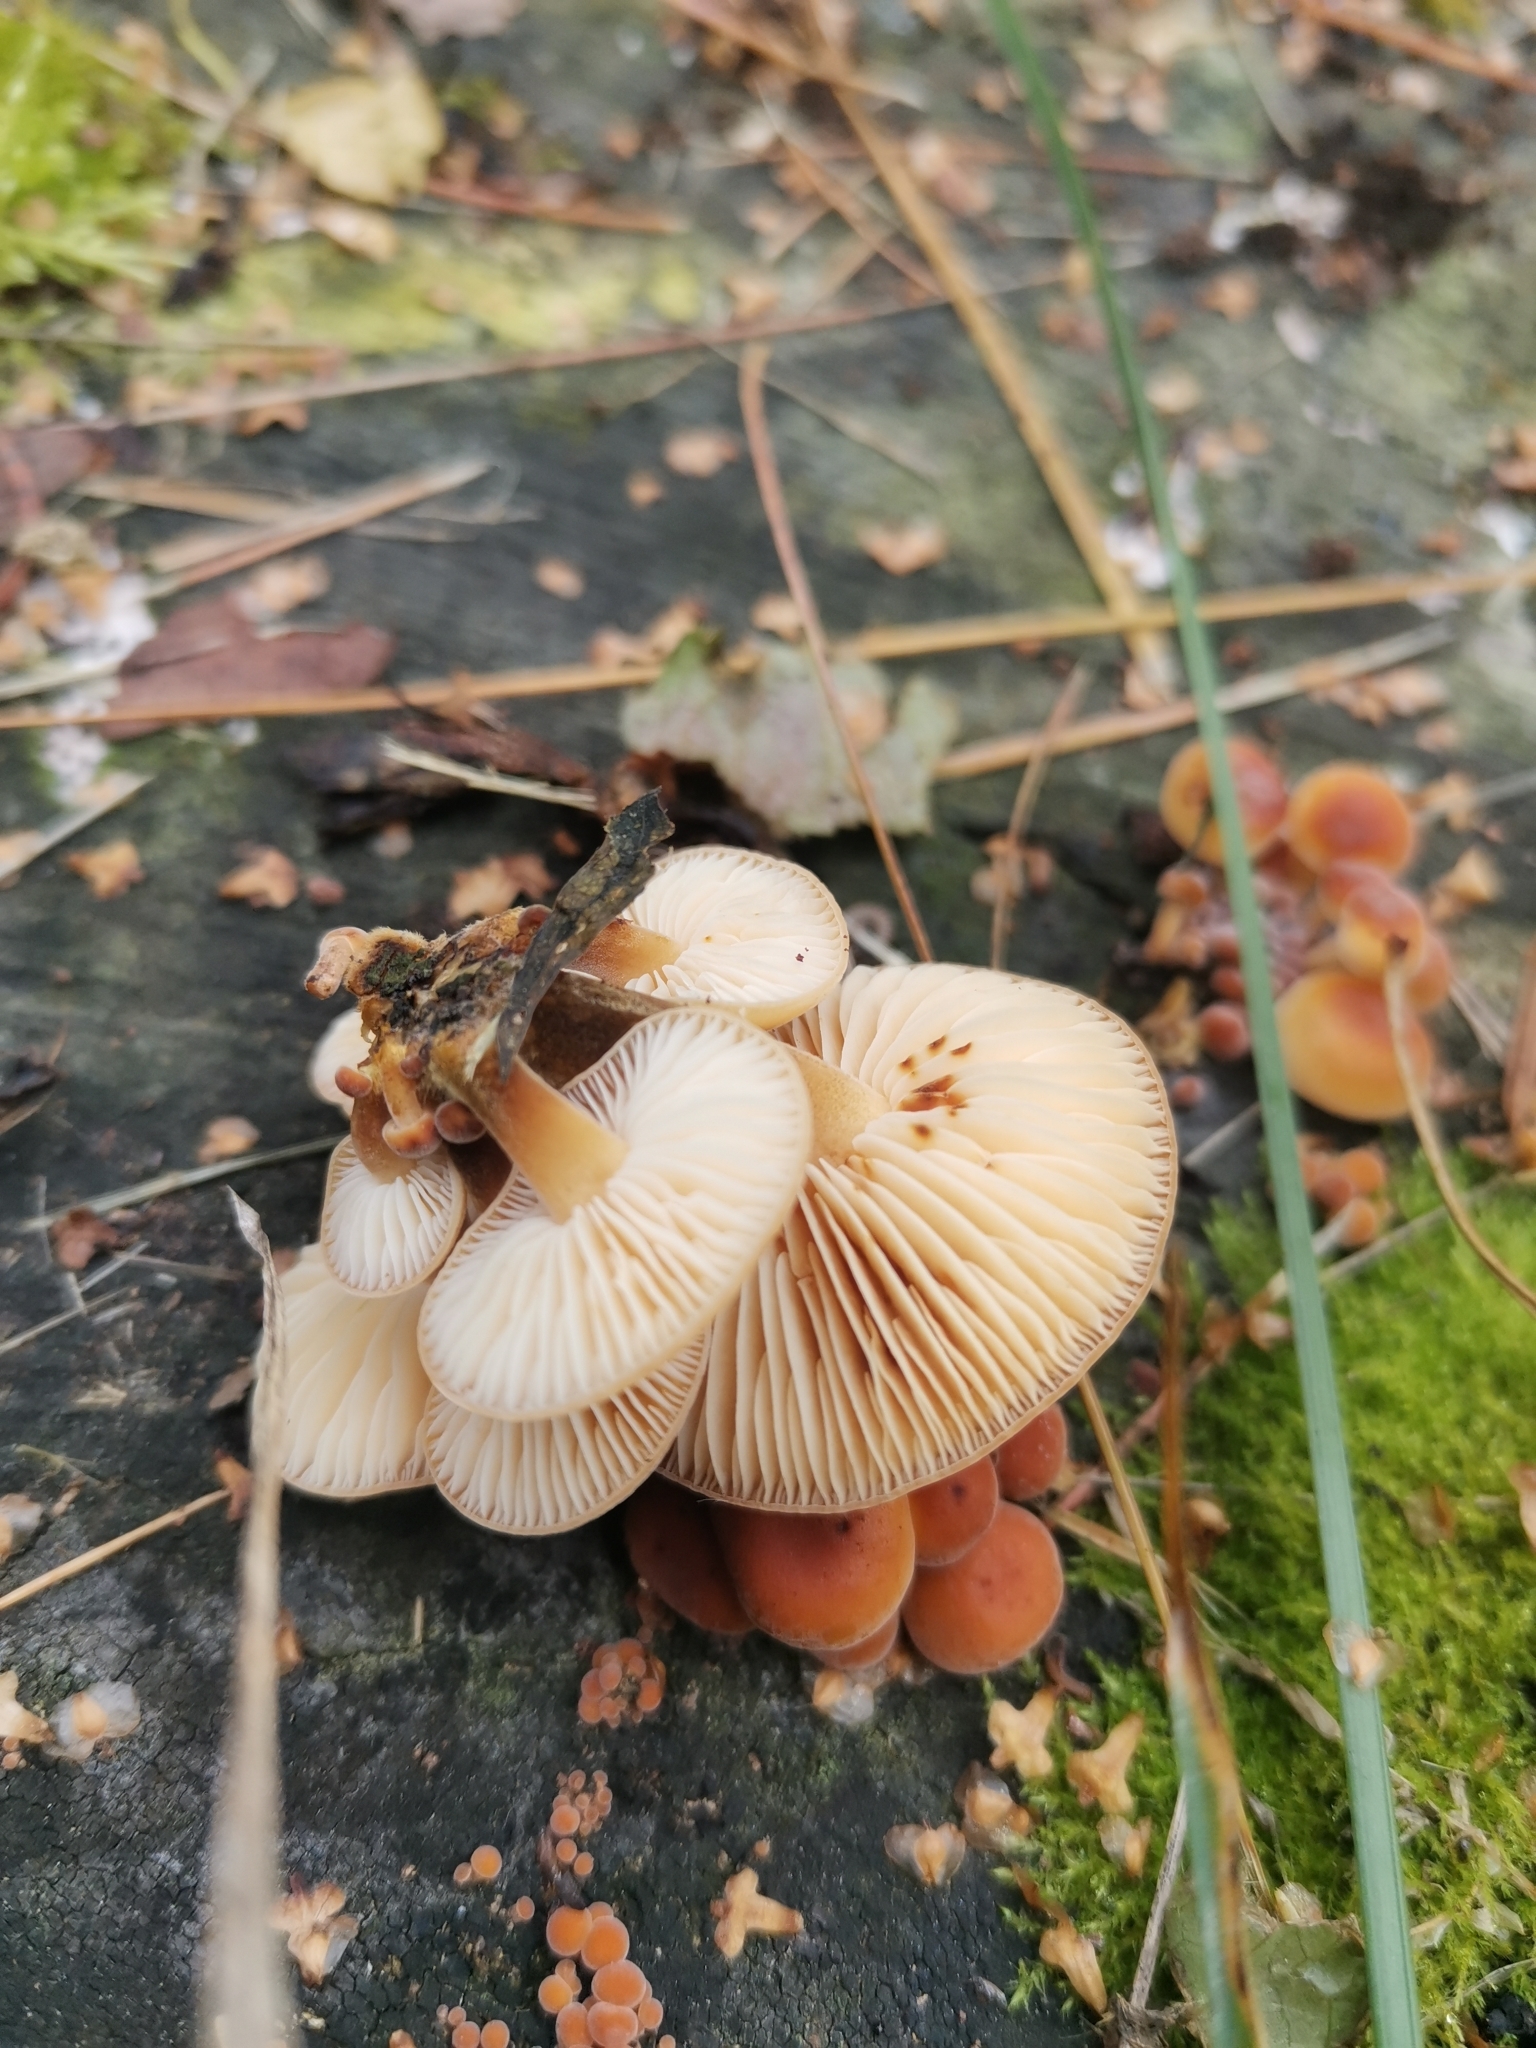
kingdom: Fungi
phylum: Basidiomycota
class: Agaricomycetes
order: Agaricales
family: Physalacriaceae
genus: Flammulina
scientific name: Flammulina
